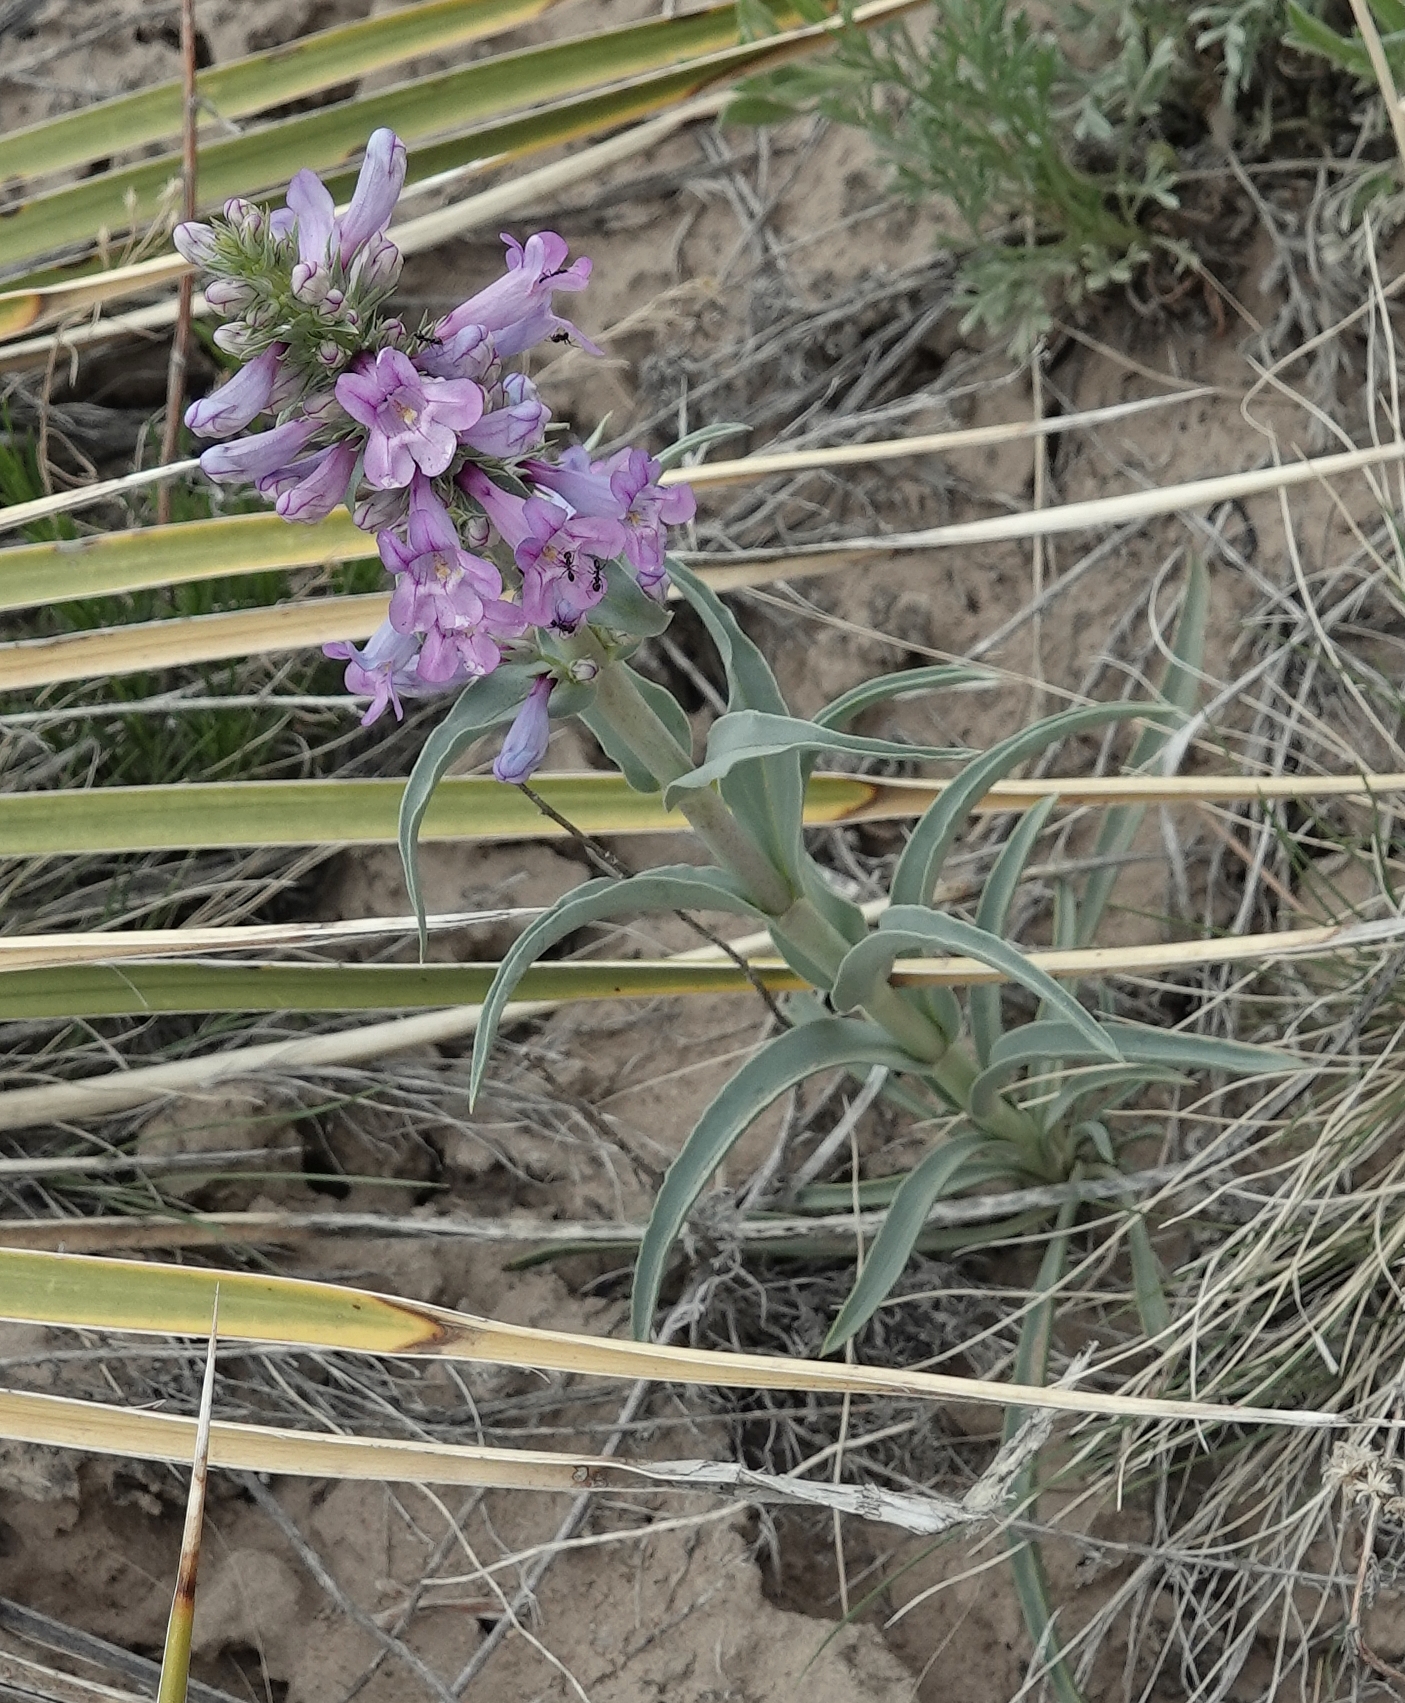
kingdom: Plantae
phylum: Tracheophyta
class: Magnoliopsida
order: Lamiales
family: Plantaginaceae
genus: Penstemon
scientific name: Penstemon angustifolius
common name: Narrow beardtongue
